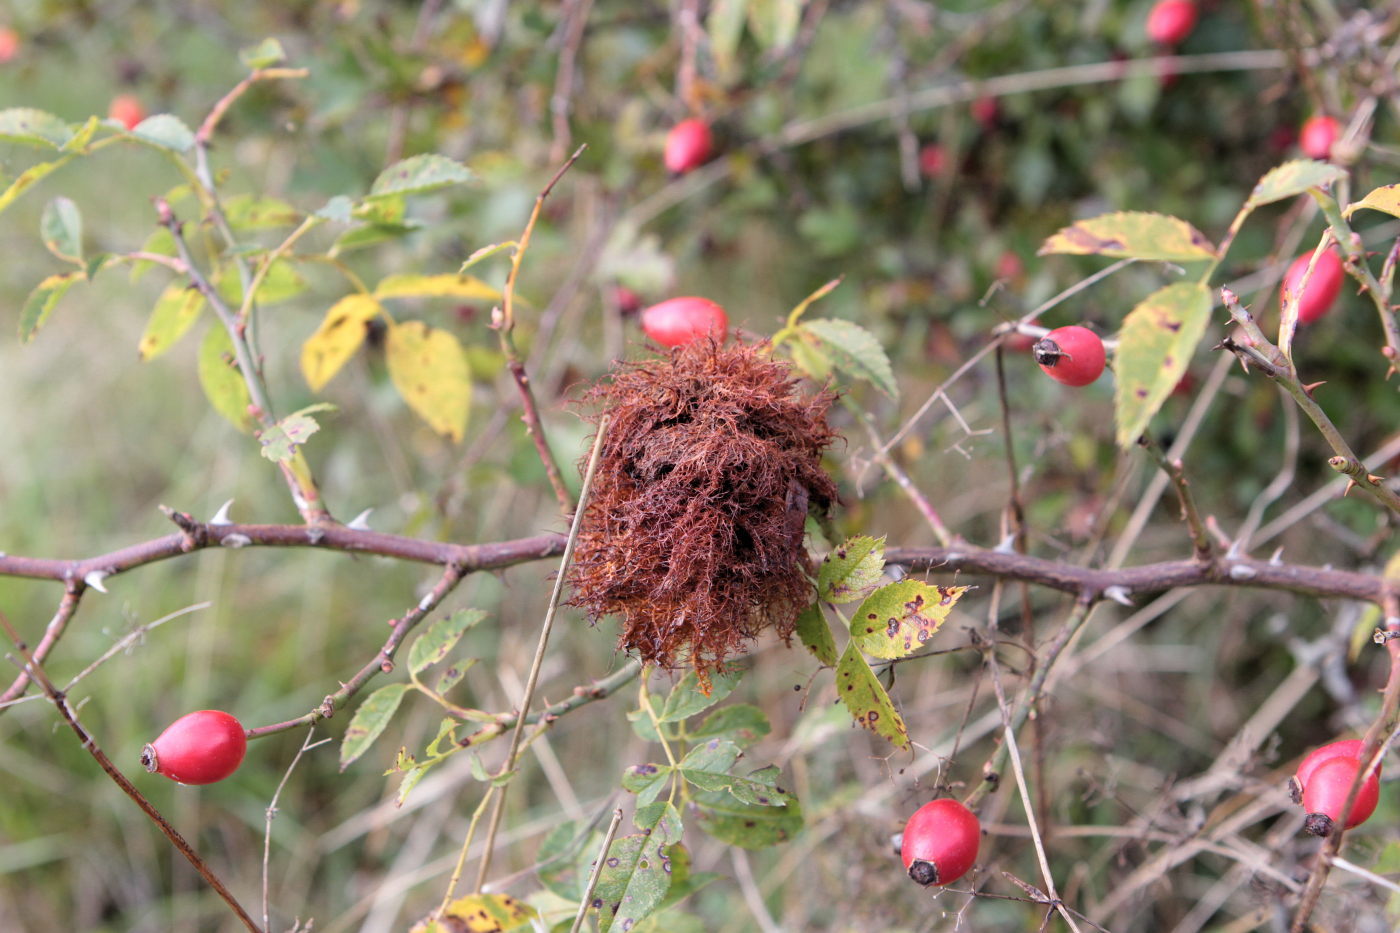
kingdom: Animalia
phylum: Arthropoda
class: Insecta
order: Hymenoptera
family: Cynipidae
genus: Diplolepis
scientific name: Diplolepis rosae
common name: Bedeguar gall
